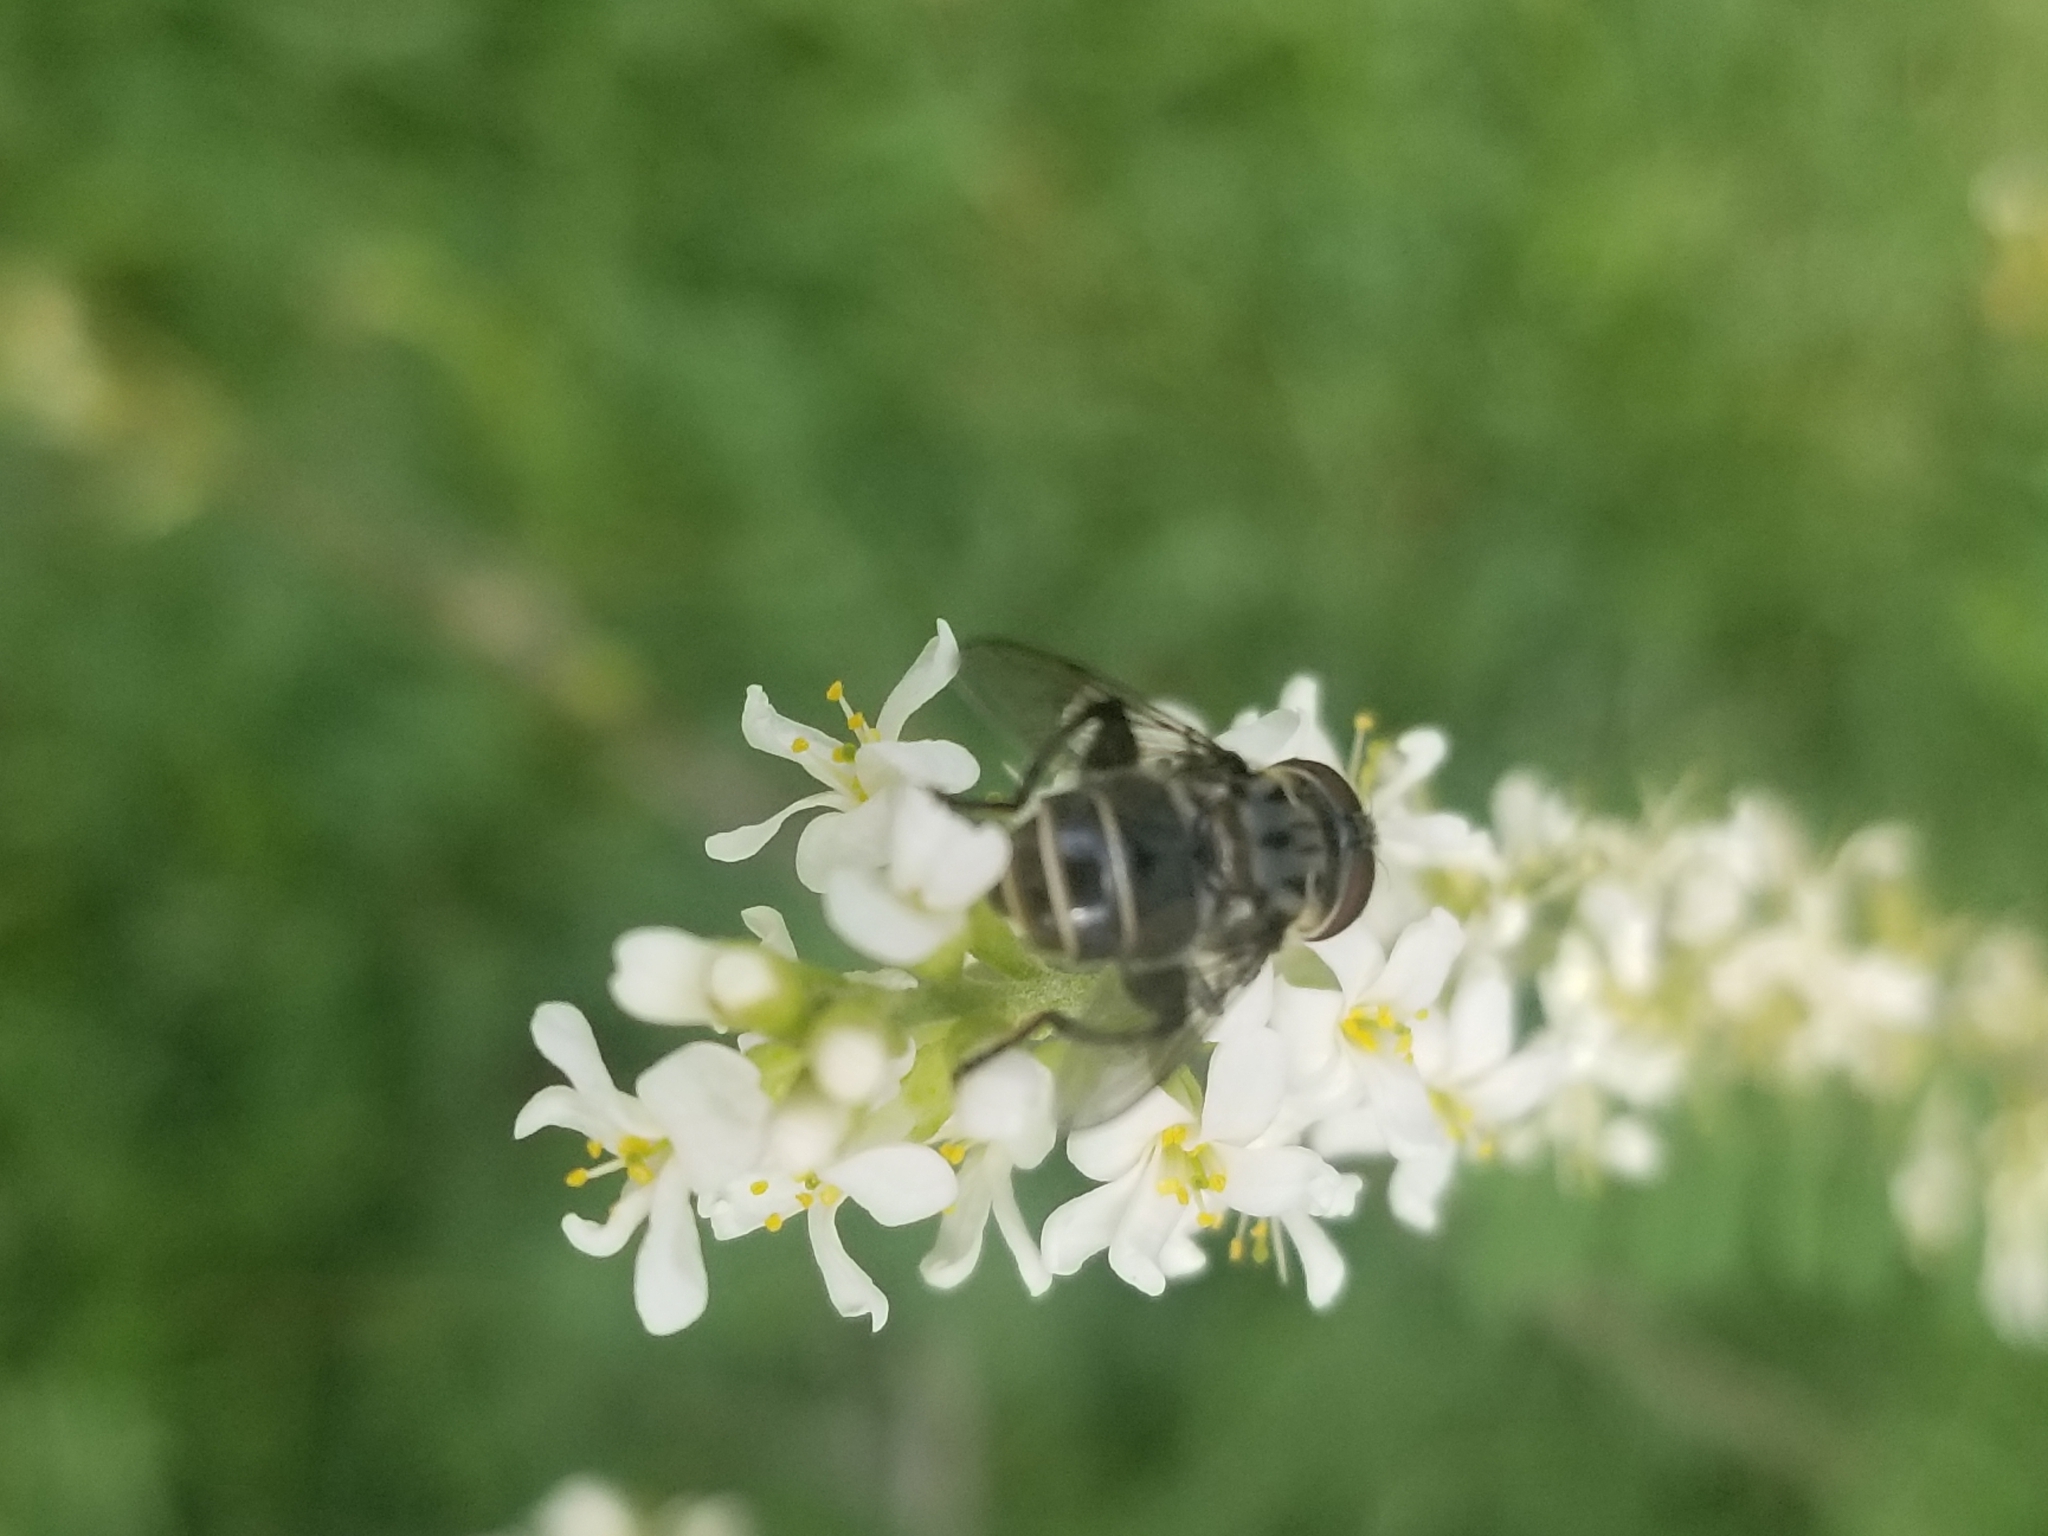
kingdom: Animalia
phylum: Arthropoda
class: Insecta
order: Diptera
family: Syrphidae
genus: Palpada
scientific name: Palpada furcata
